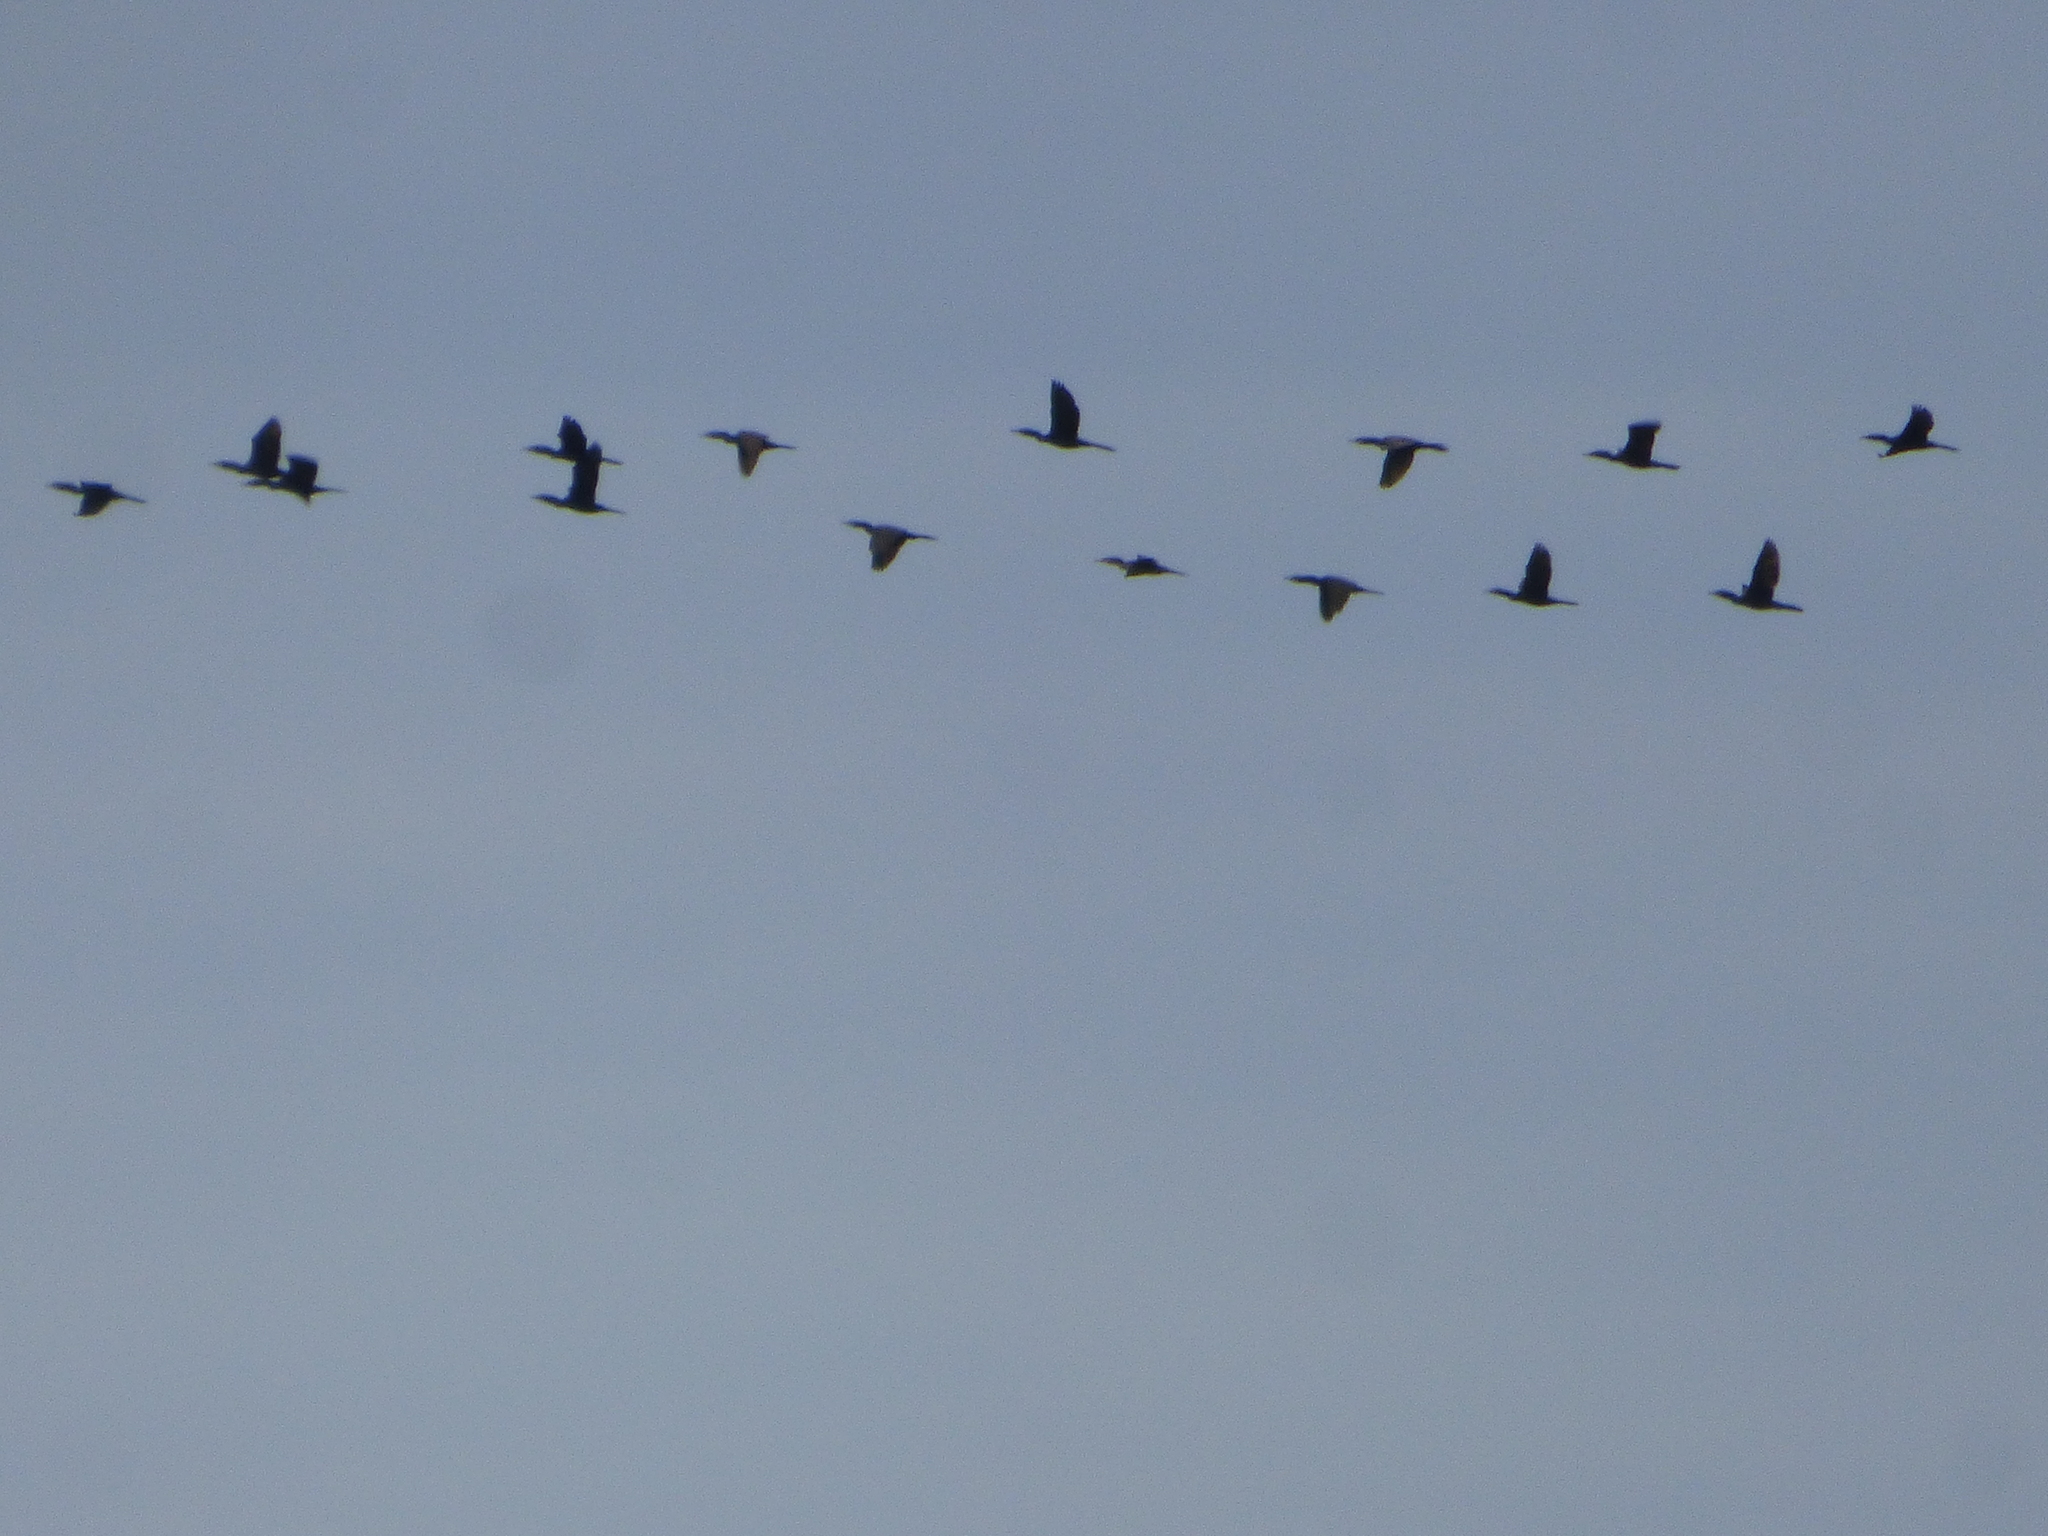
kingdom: Animalia
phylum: Chordata
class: Aves
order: Suliformes
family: Phalacrocoracidae
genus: Phalacrocorax
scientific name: Phalacrocorax brasilianus
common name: Neotropic cormorant
